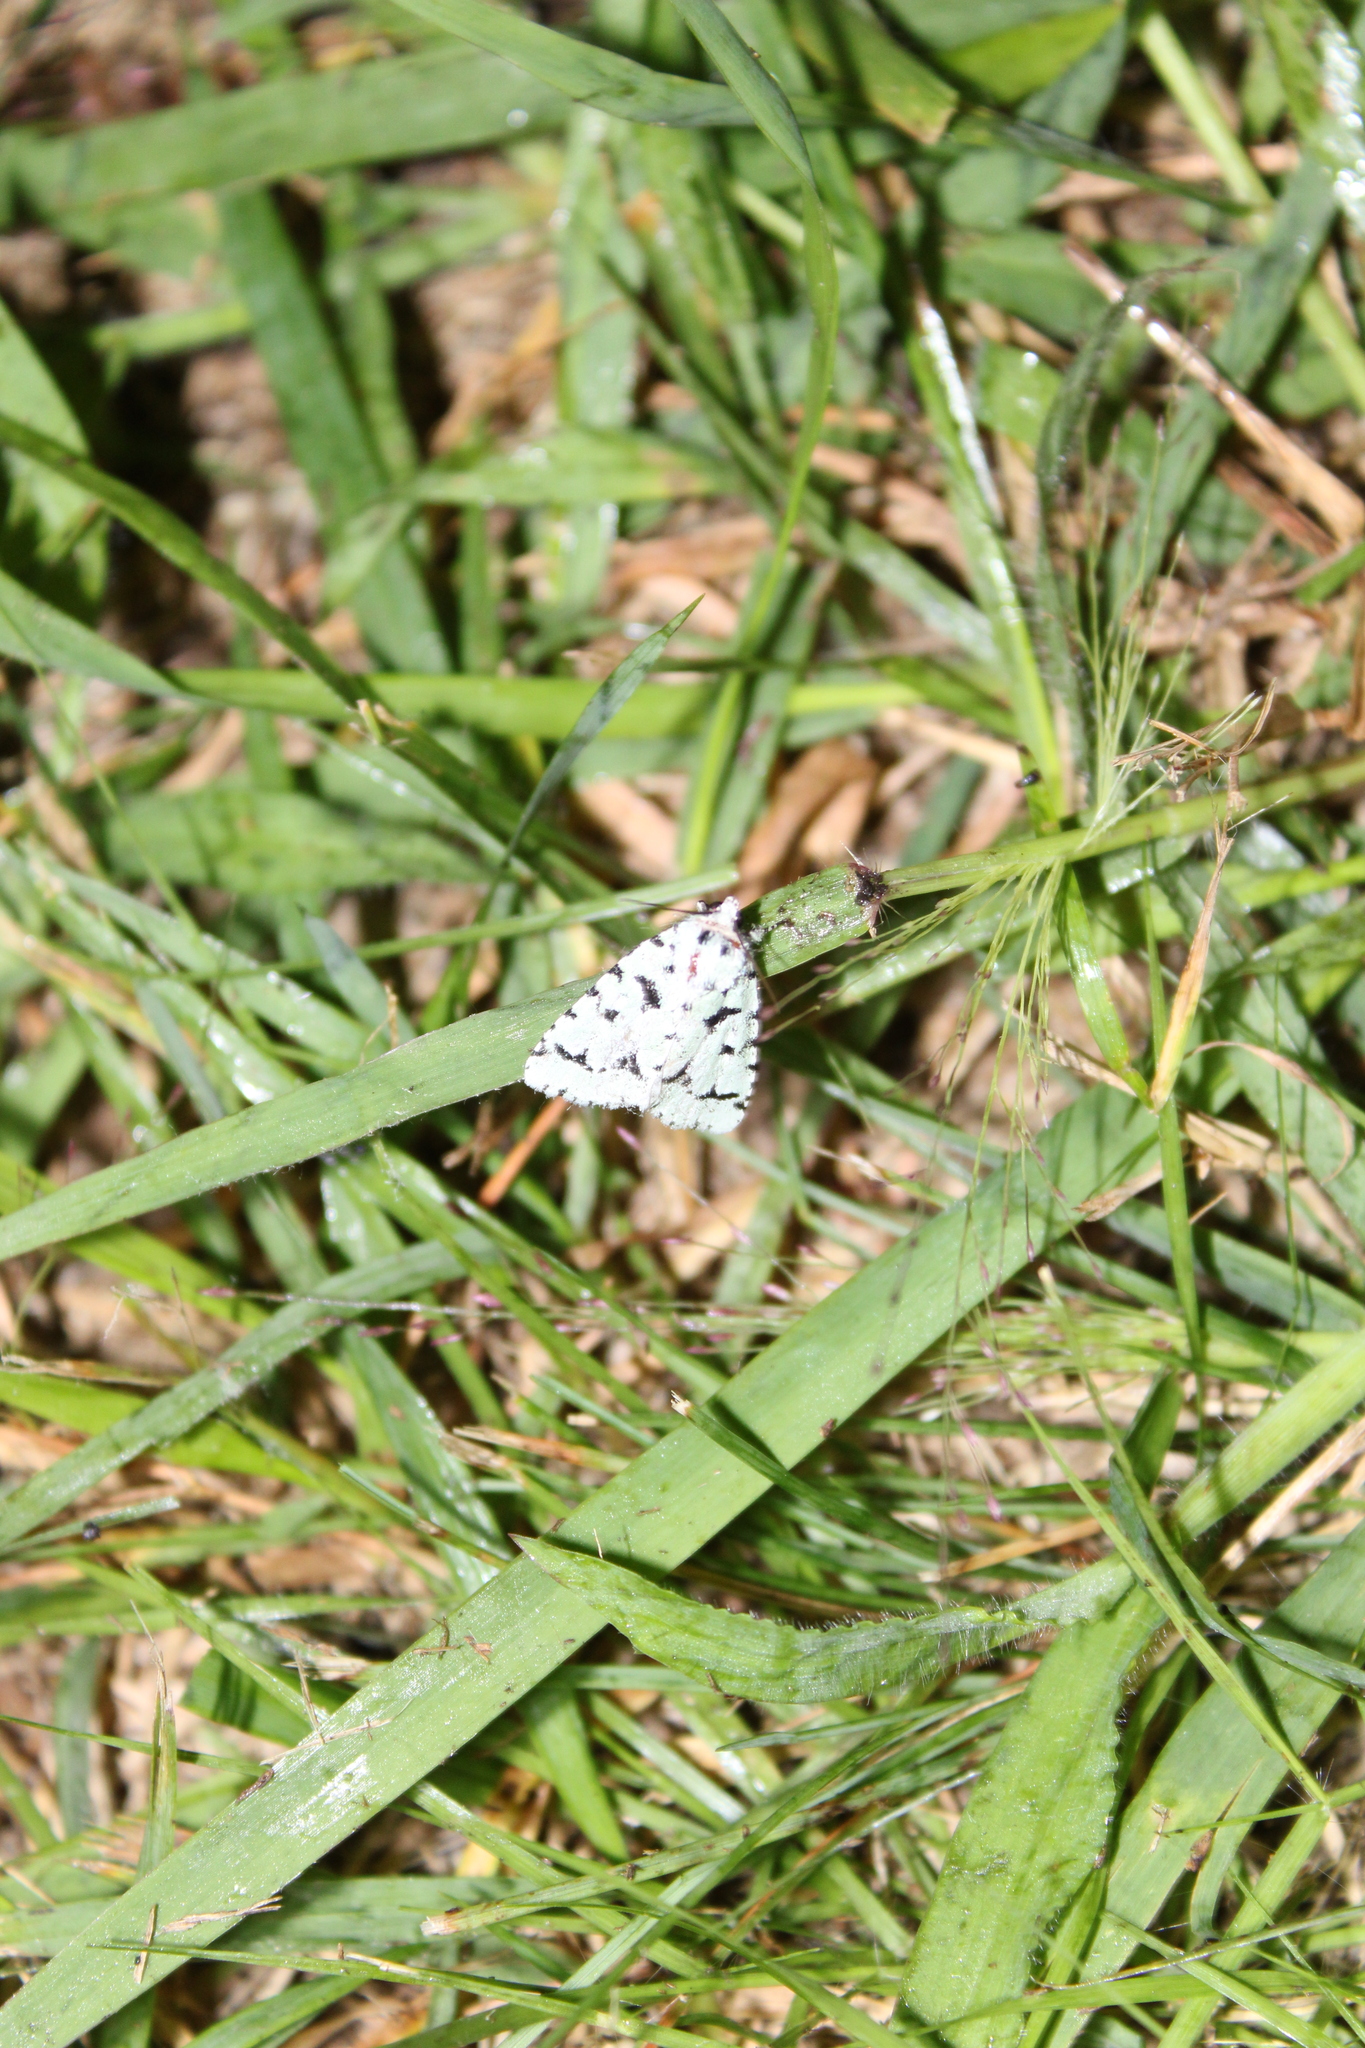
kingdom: Animalia
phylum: Arthropoda
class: Insecta
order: Lepidoptera
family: Noctuidae
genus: Acronicta
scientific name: Acronicta fallax
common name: Green marvel
